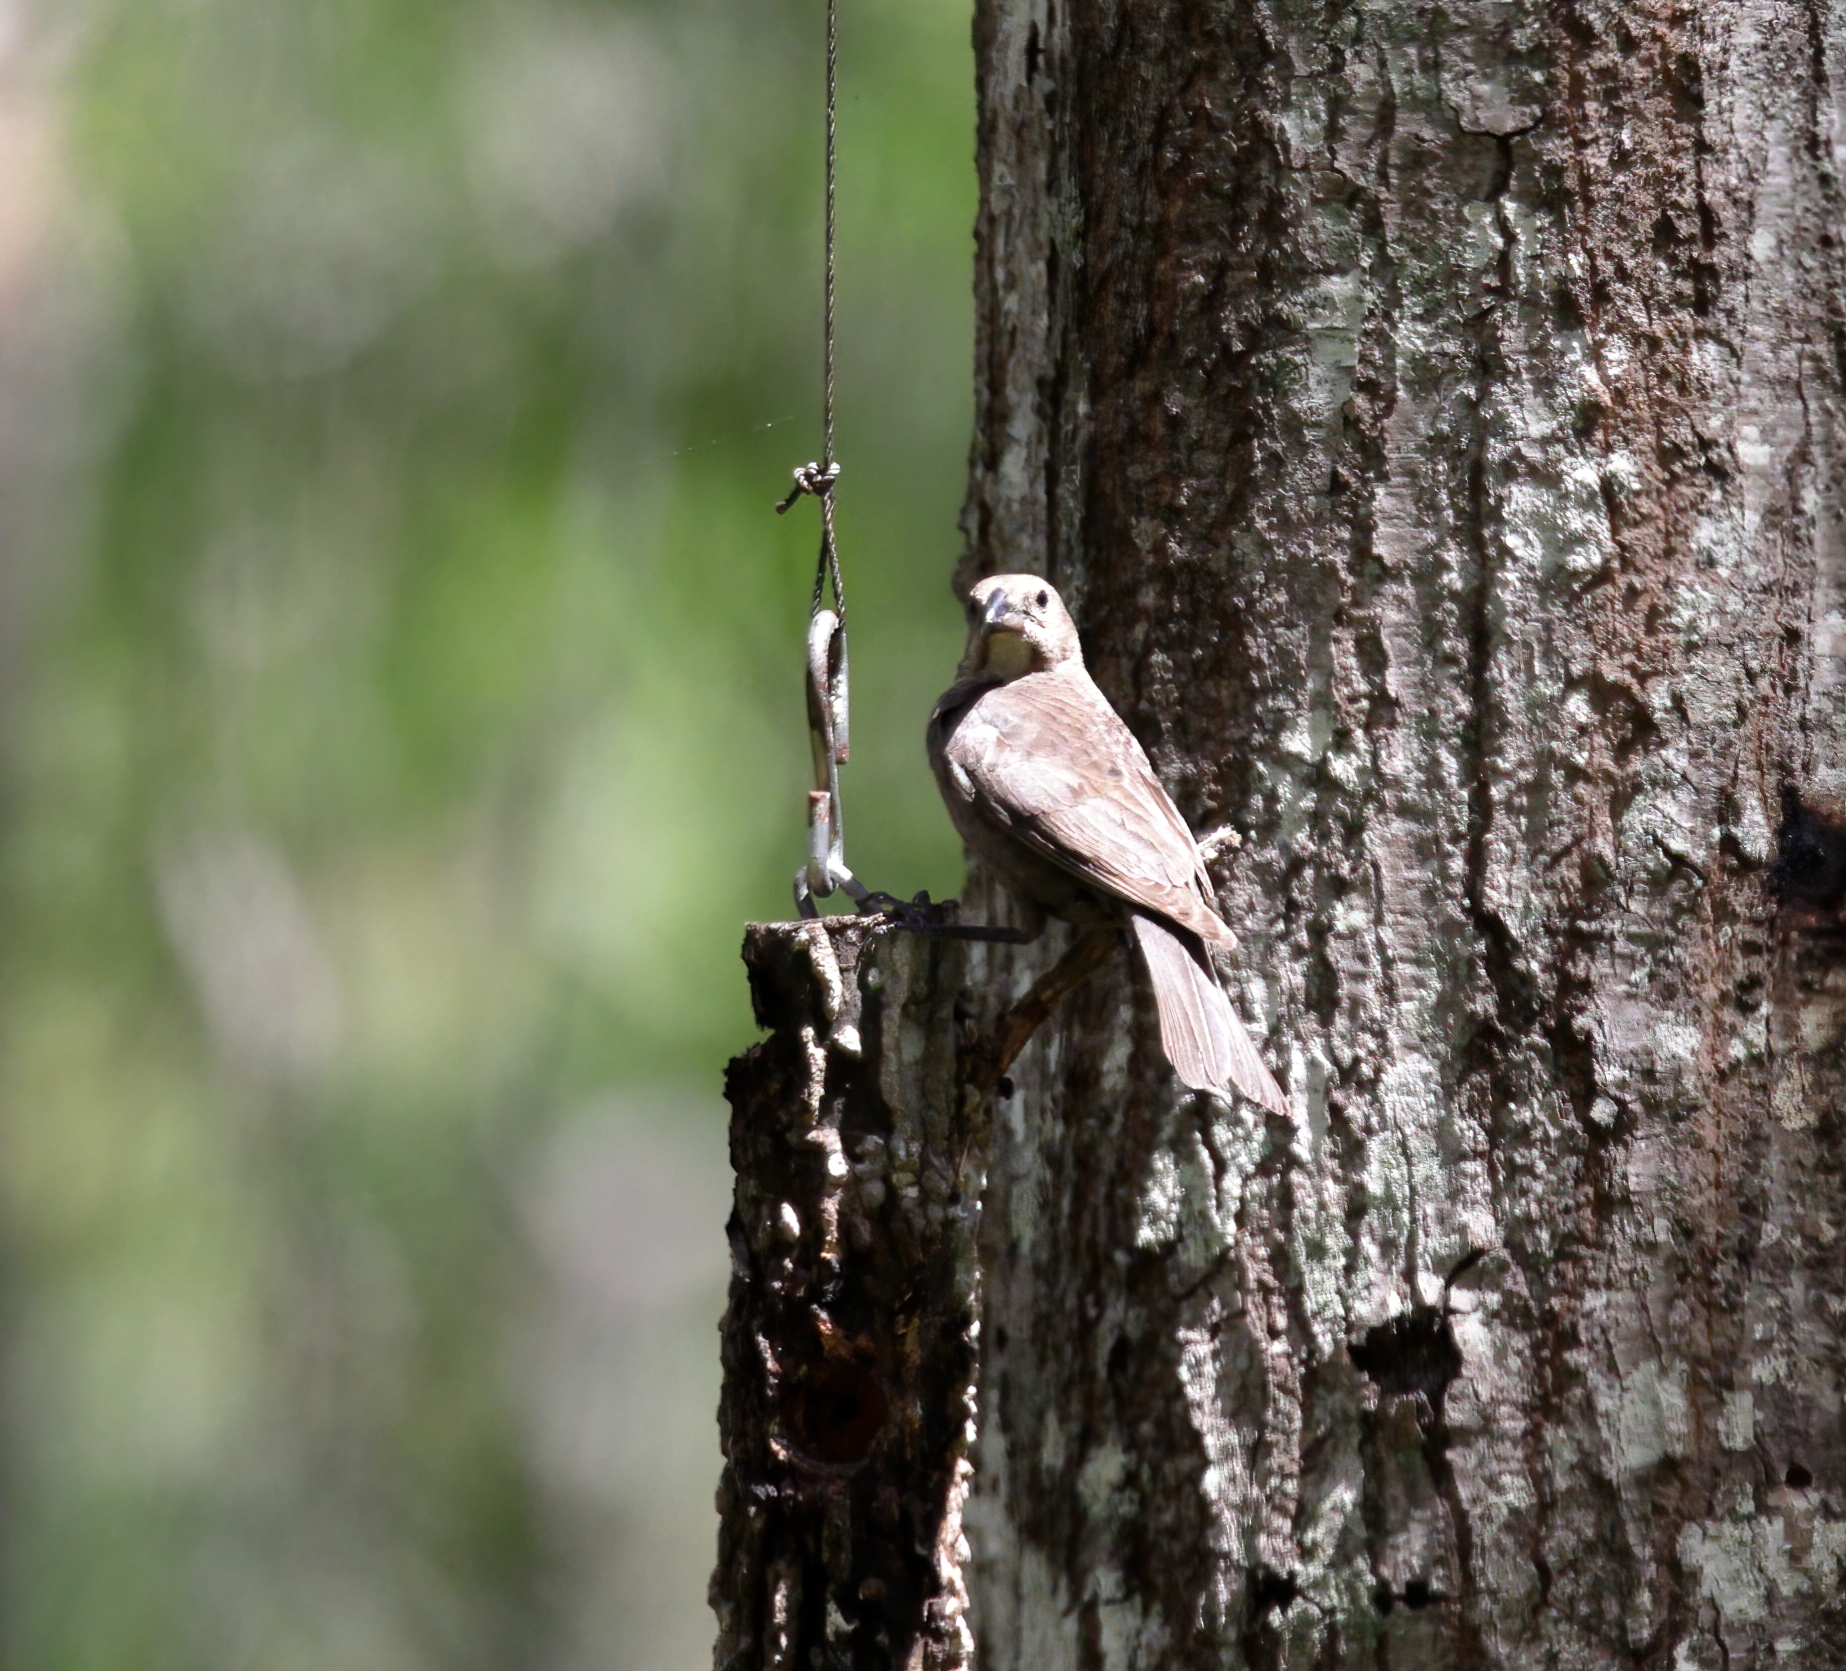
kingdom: Animalia
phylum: Chordata
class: Aves
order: Passeriformes
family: Icteridae
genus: Molothrus
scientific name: Molothrus ater
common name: Brown-headed cowbird
